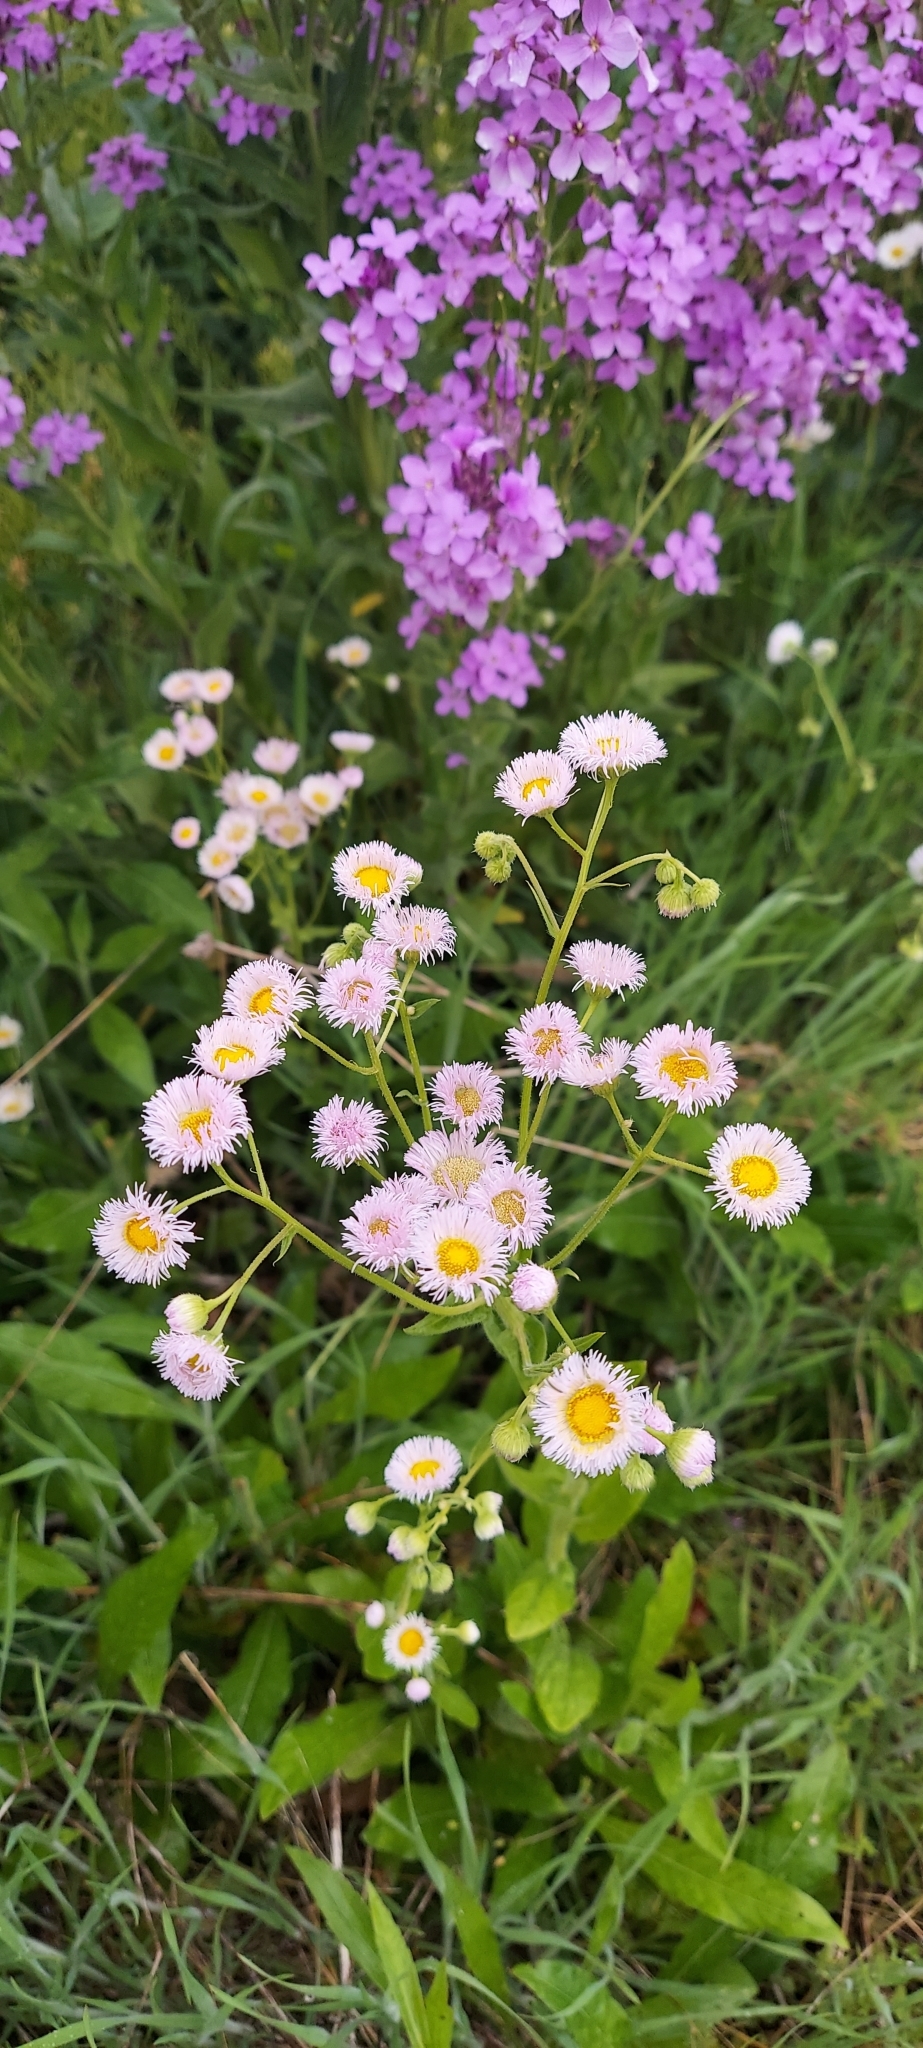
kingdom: Plantae
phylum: Tracheophyta
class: Magnoliopsida
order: Asterales
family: Asteraceae
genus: Erigeron
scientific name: Erigeron philadelphicus
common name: Robin's-plantain
